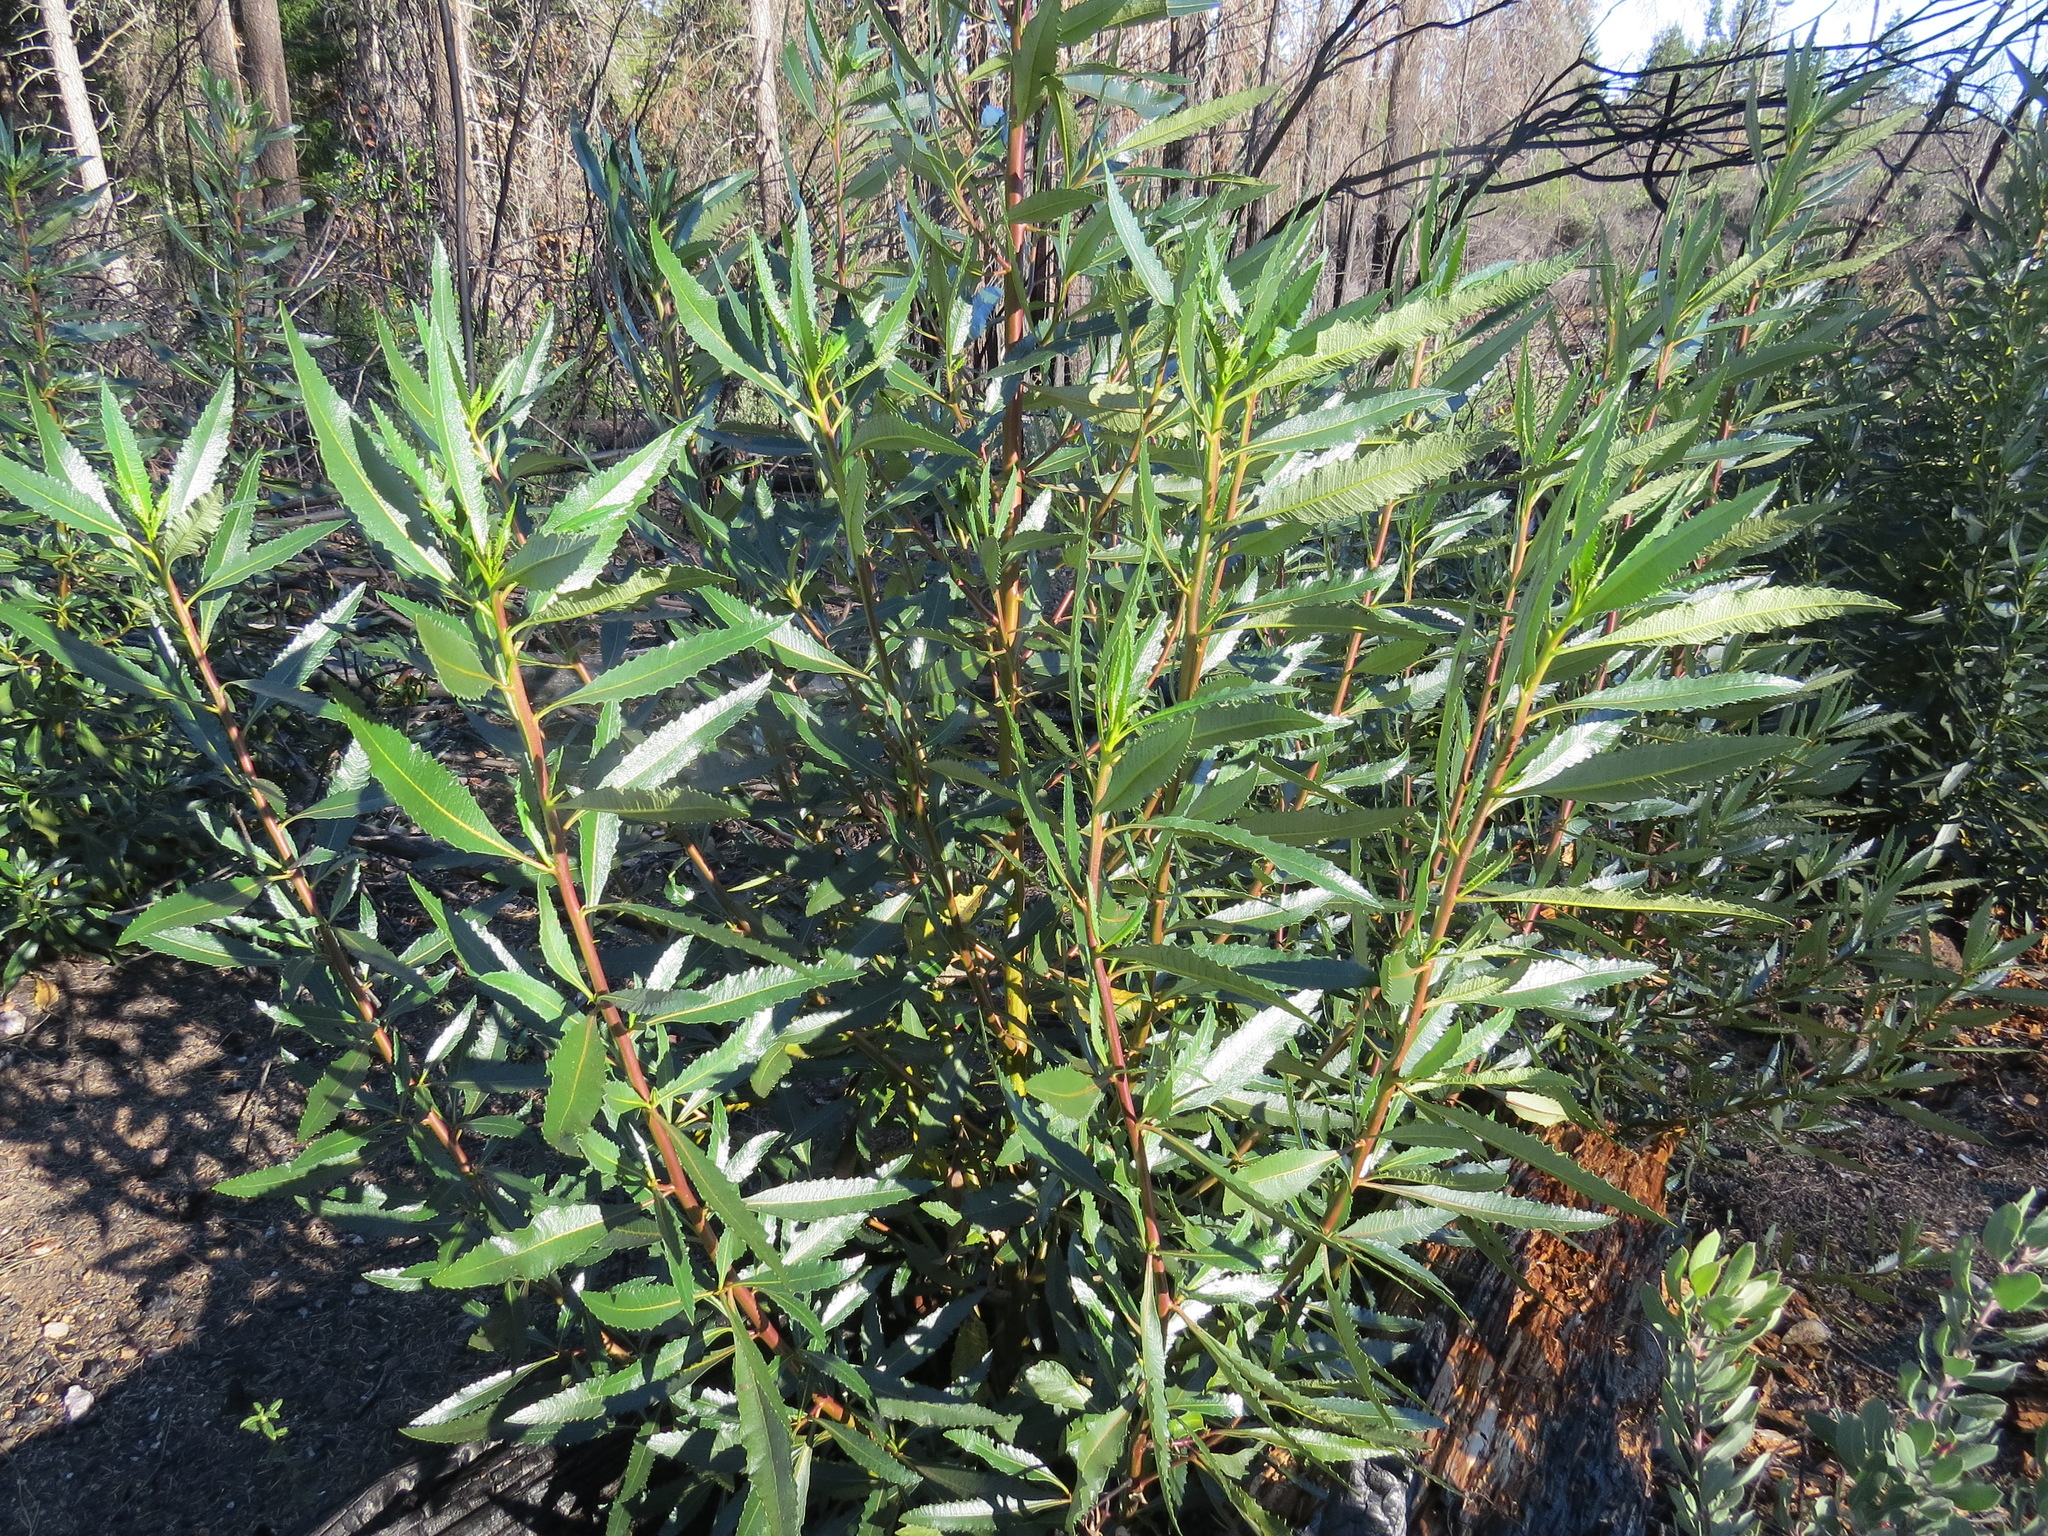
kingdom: Plantae
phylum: Tracheophyta
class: Magnoliopsida
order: Boraginales
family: Namaceae
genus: Eriodictyon
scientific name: Eriodictyon californicum
